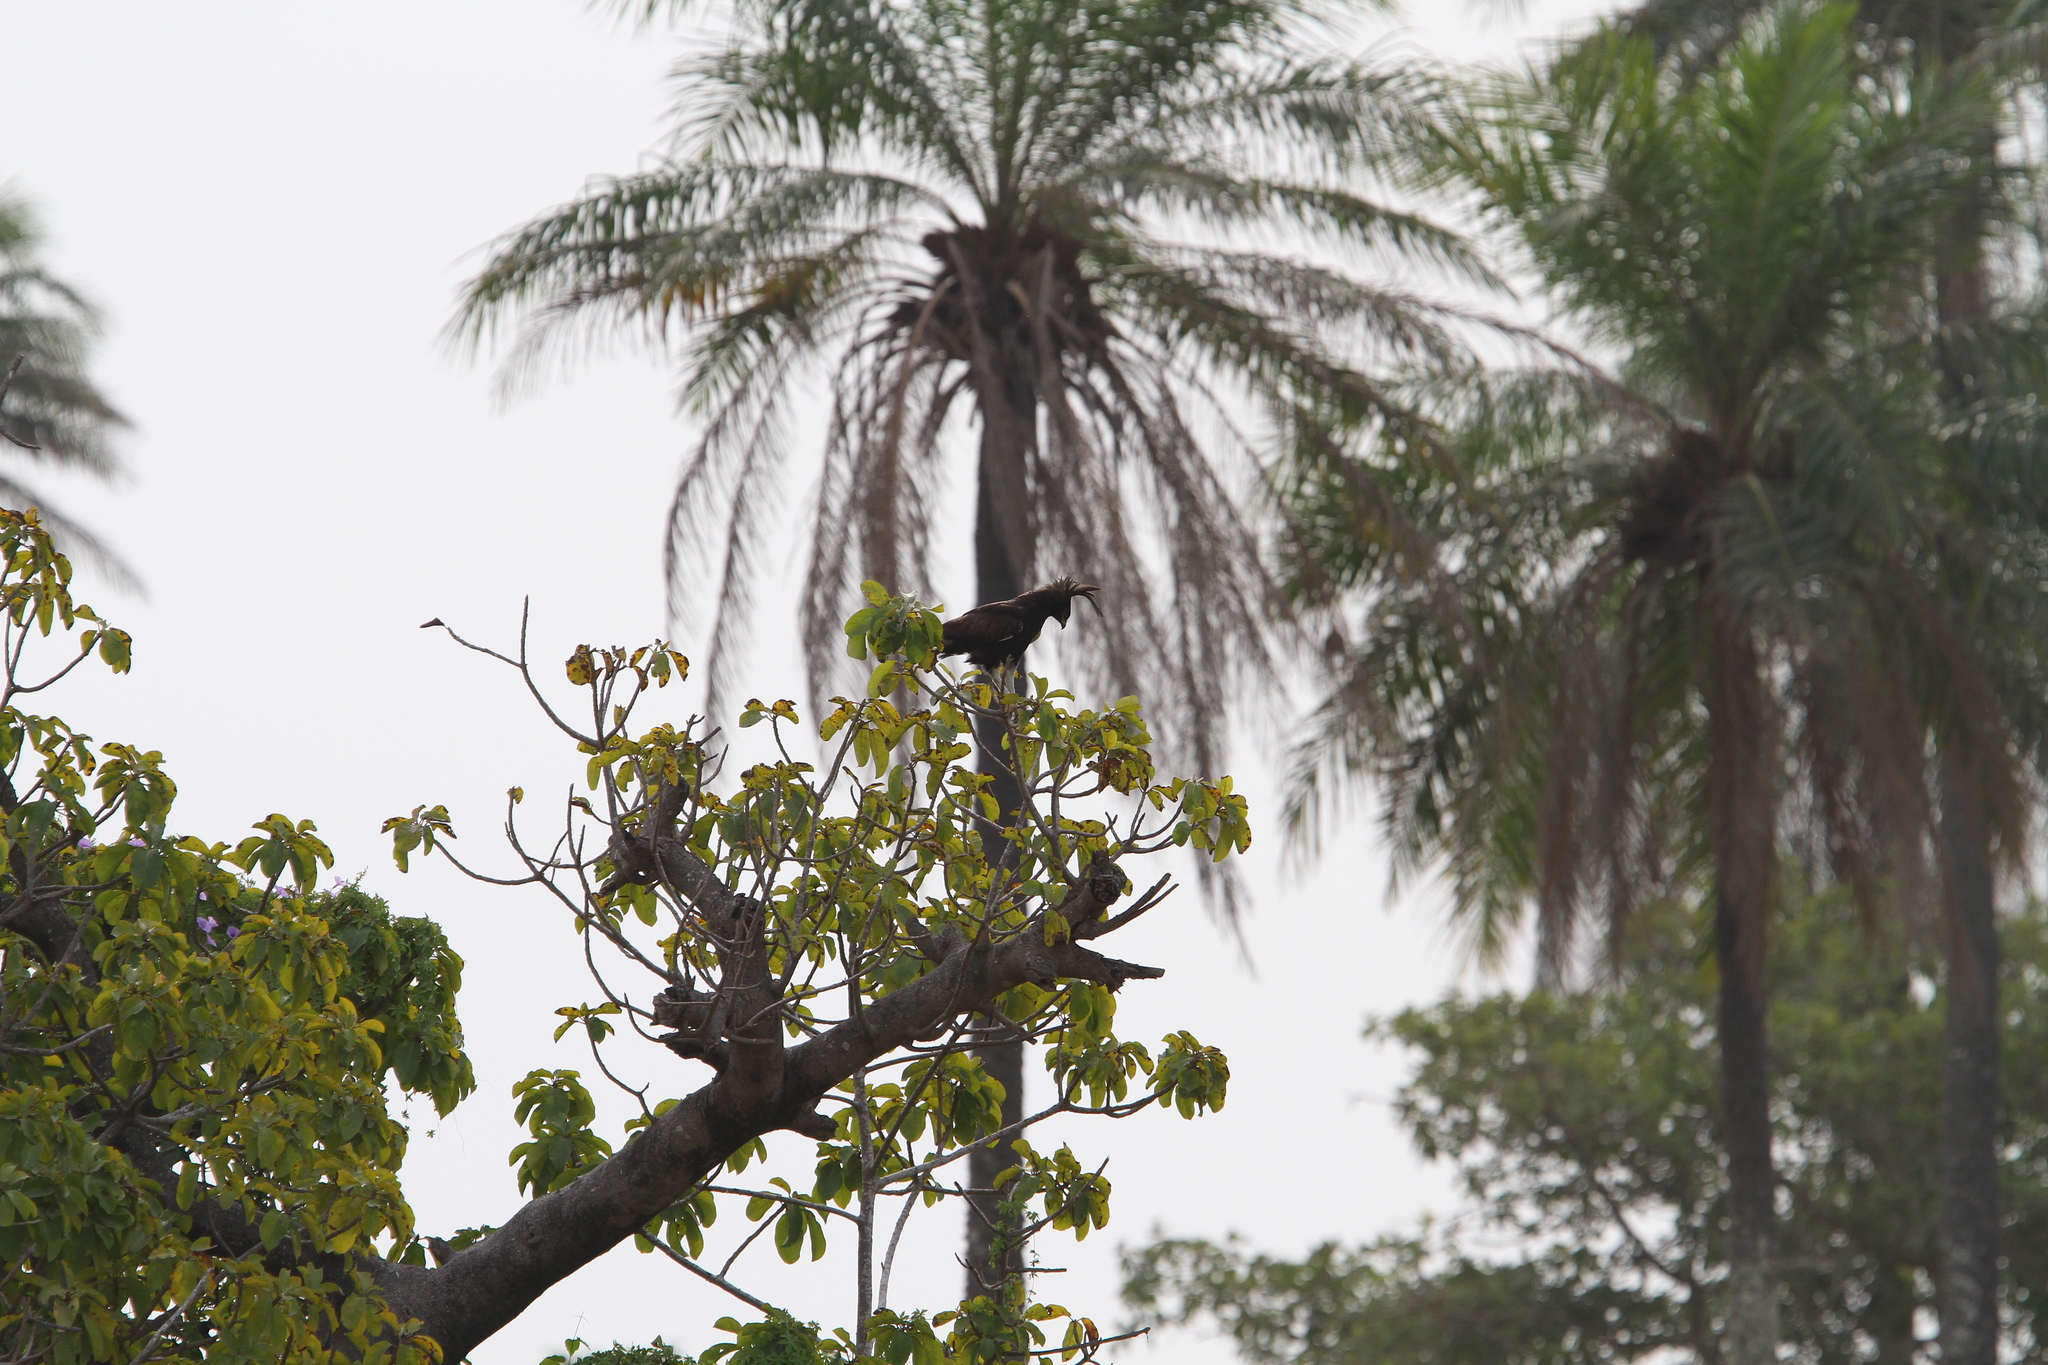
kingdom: Animalia
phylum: Chordata
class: Aves
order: Accipitriformes
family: Accipitridae
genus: Lophaetus
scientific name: Lophaetus occipitalis
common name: Long-crested eagle
